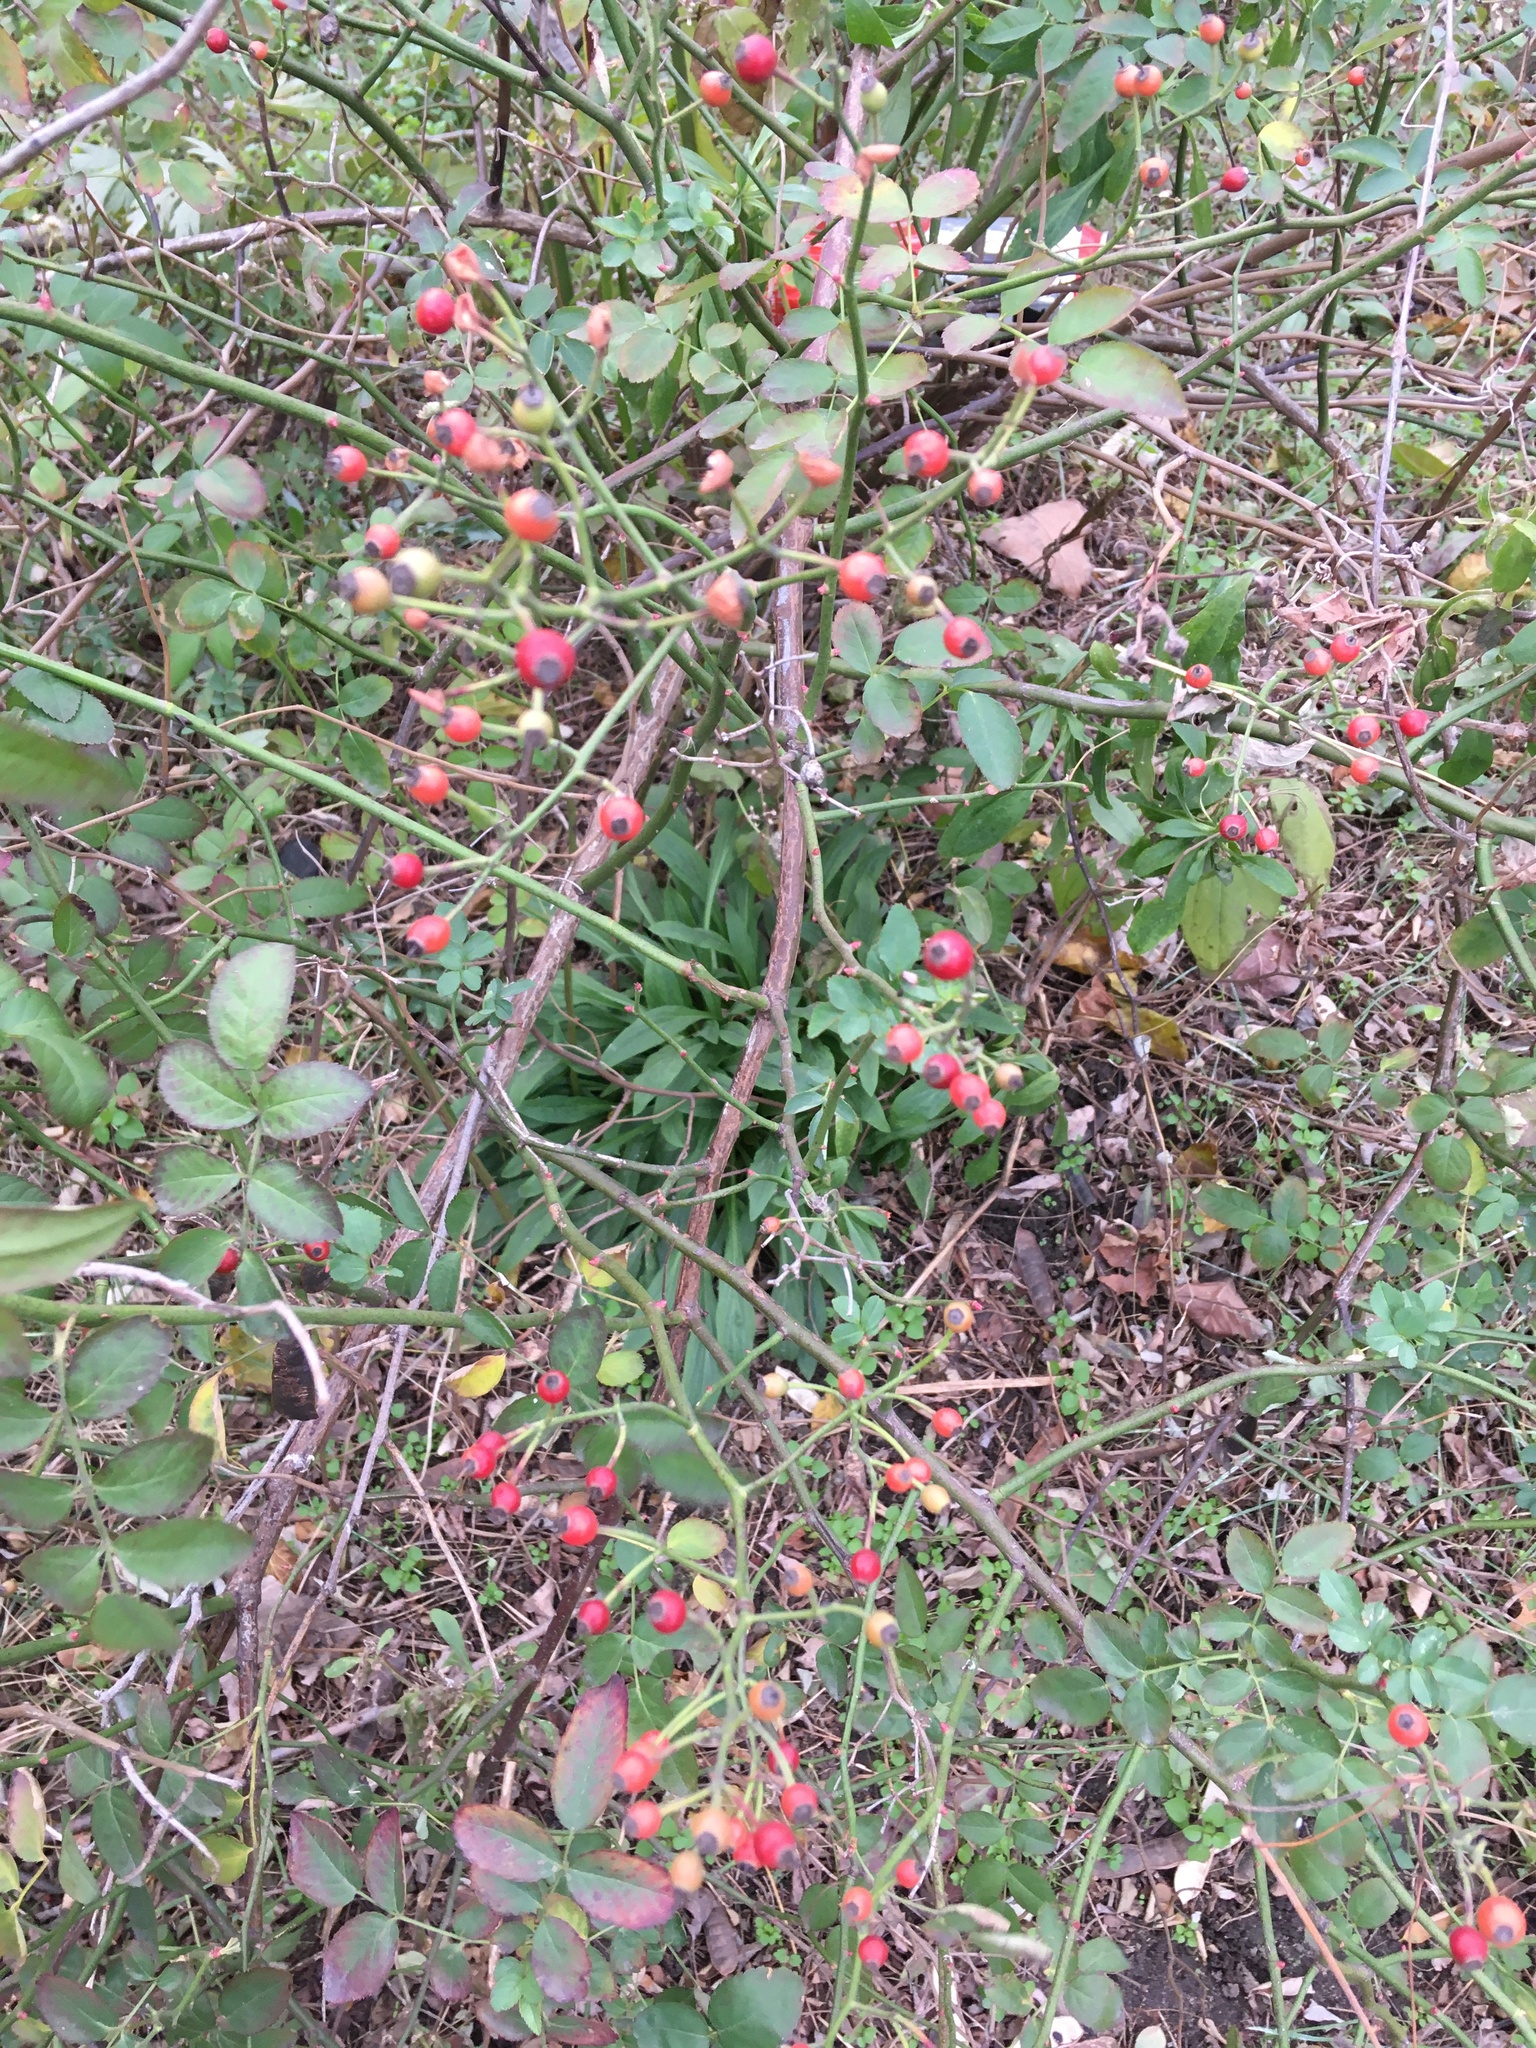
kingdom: Plantae
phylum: Tracheophyta
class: Magnoliopsida
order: Rosales
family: Rosaceae
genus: Rosa
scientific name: Rosa multiflora
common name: Multiflora rose
